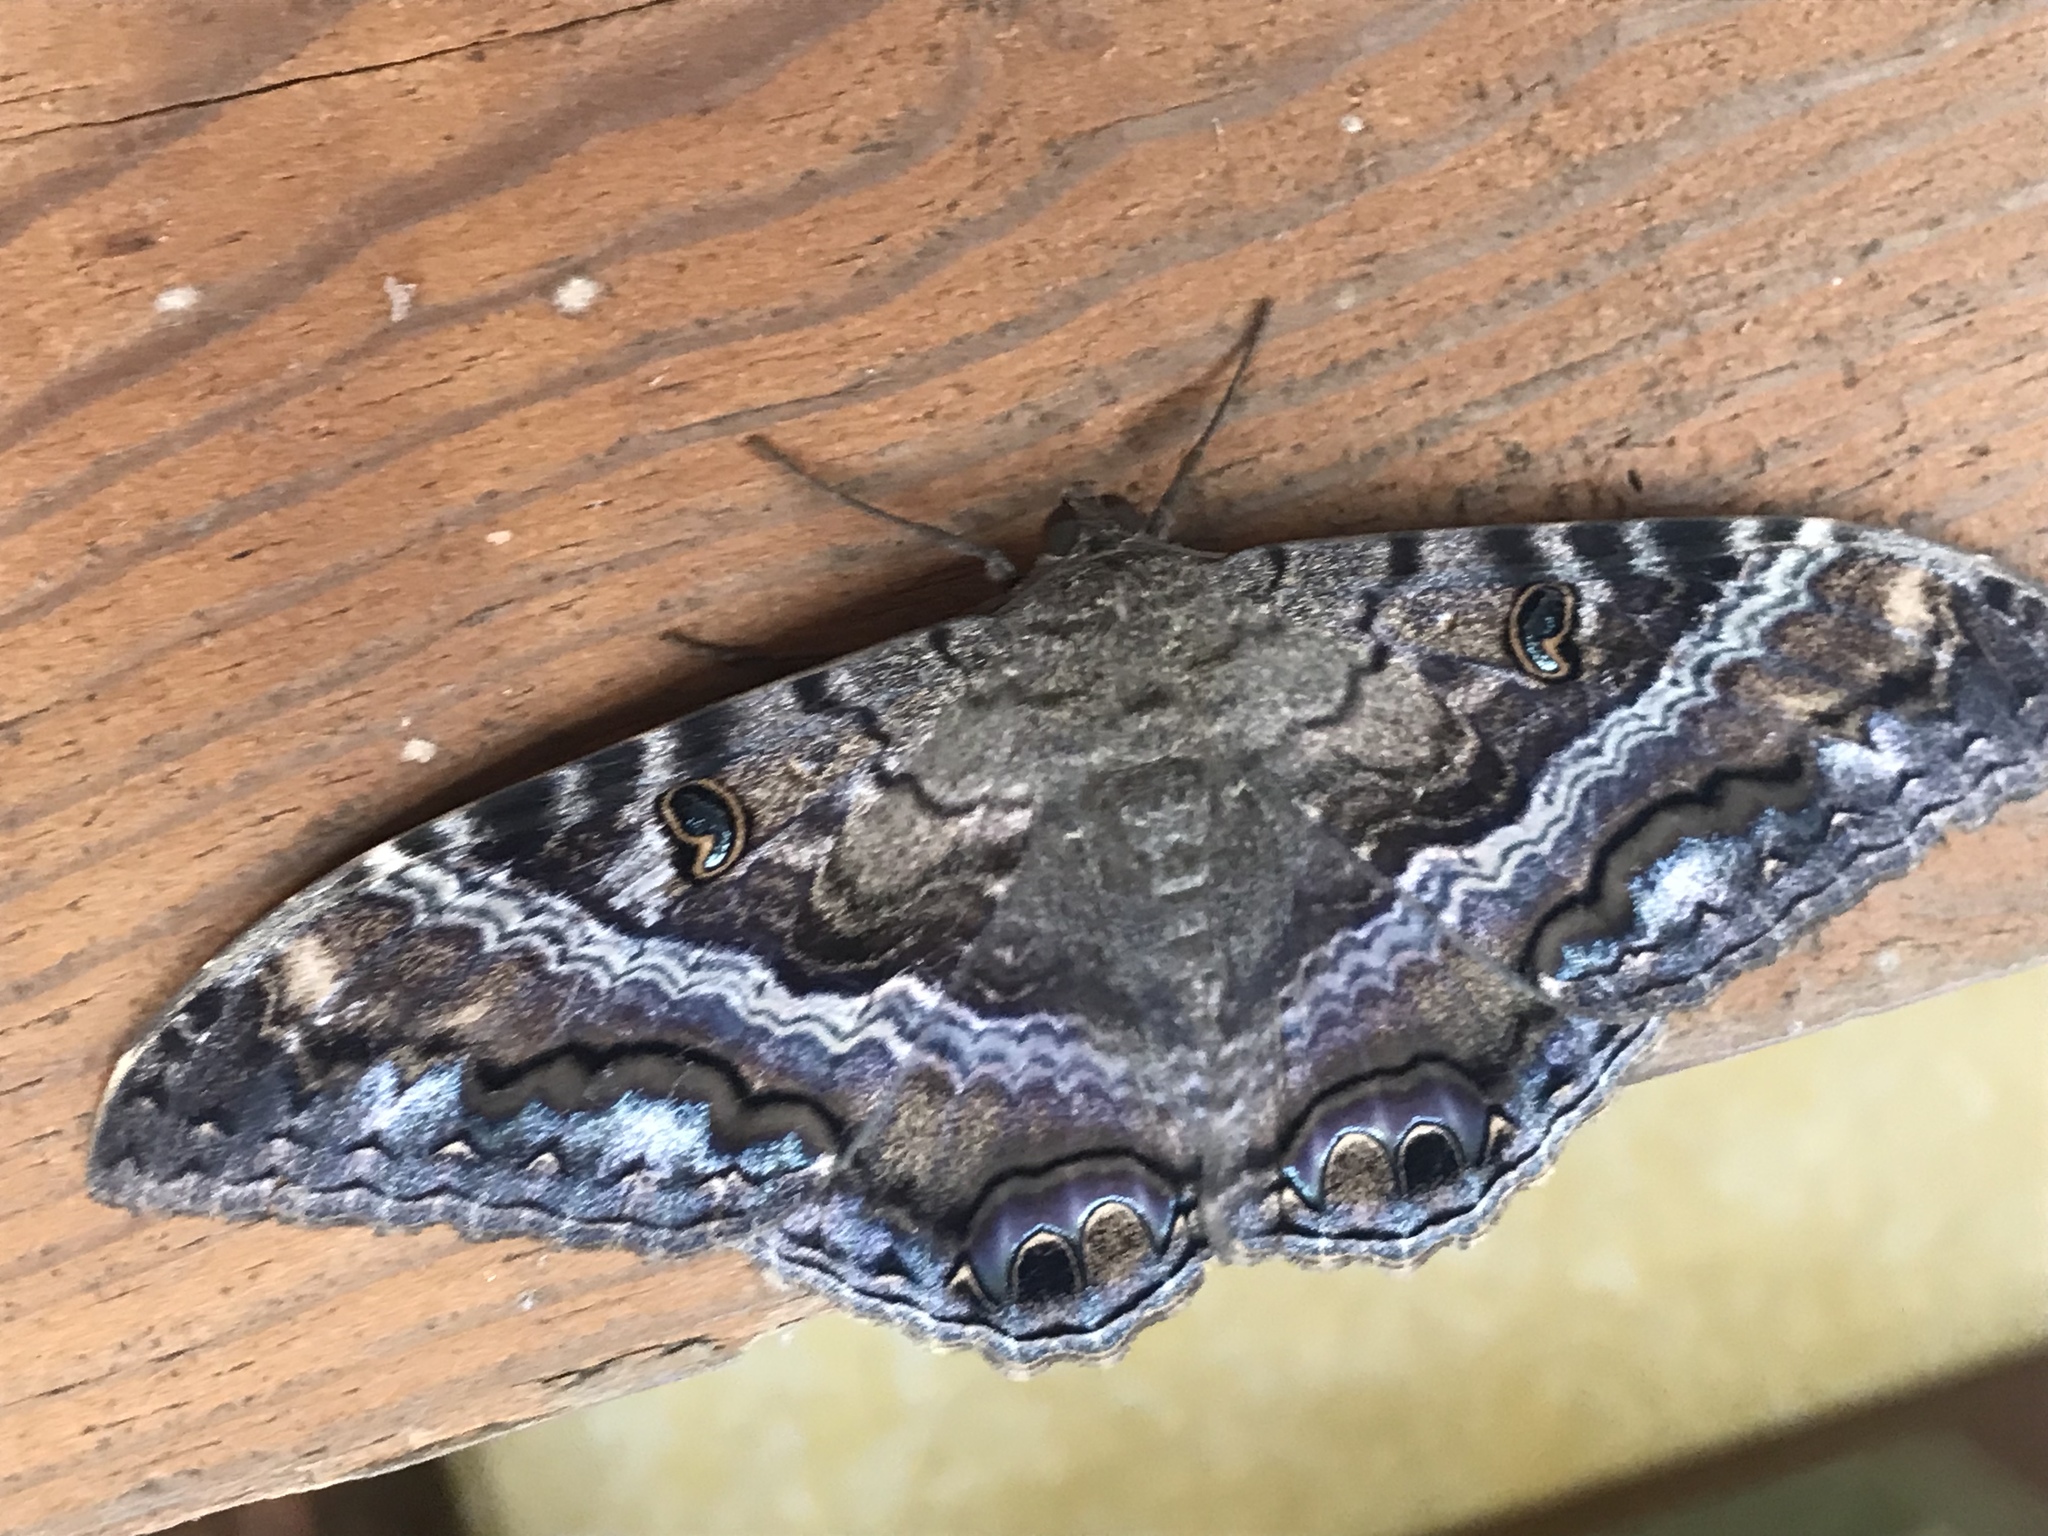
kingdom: Animalia
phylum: Arthropoda
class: Insecta
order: Lepidoptera
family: Erebidae
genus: Ascalapha
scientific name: Ascalapha odorata
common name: Black witch
